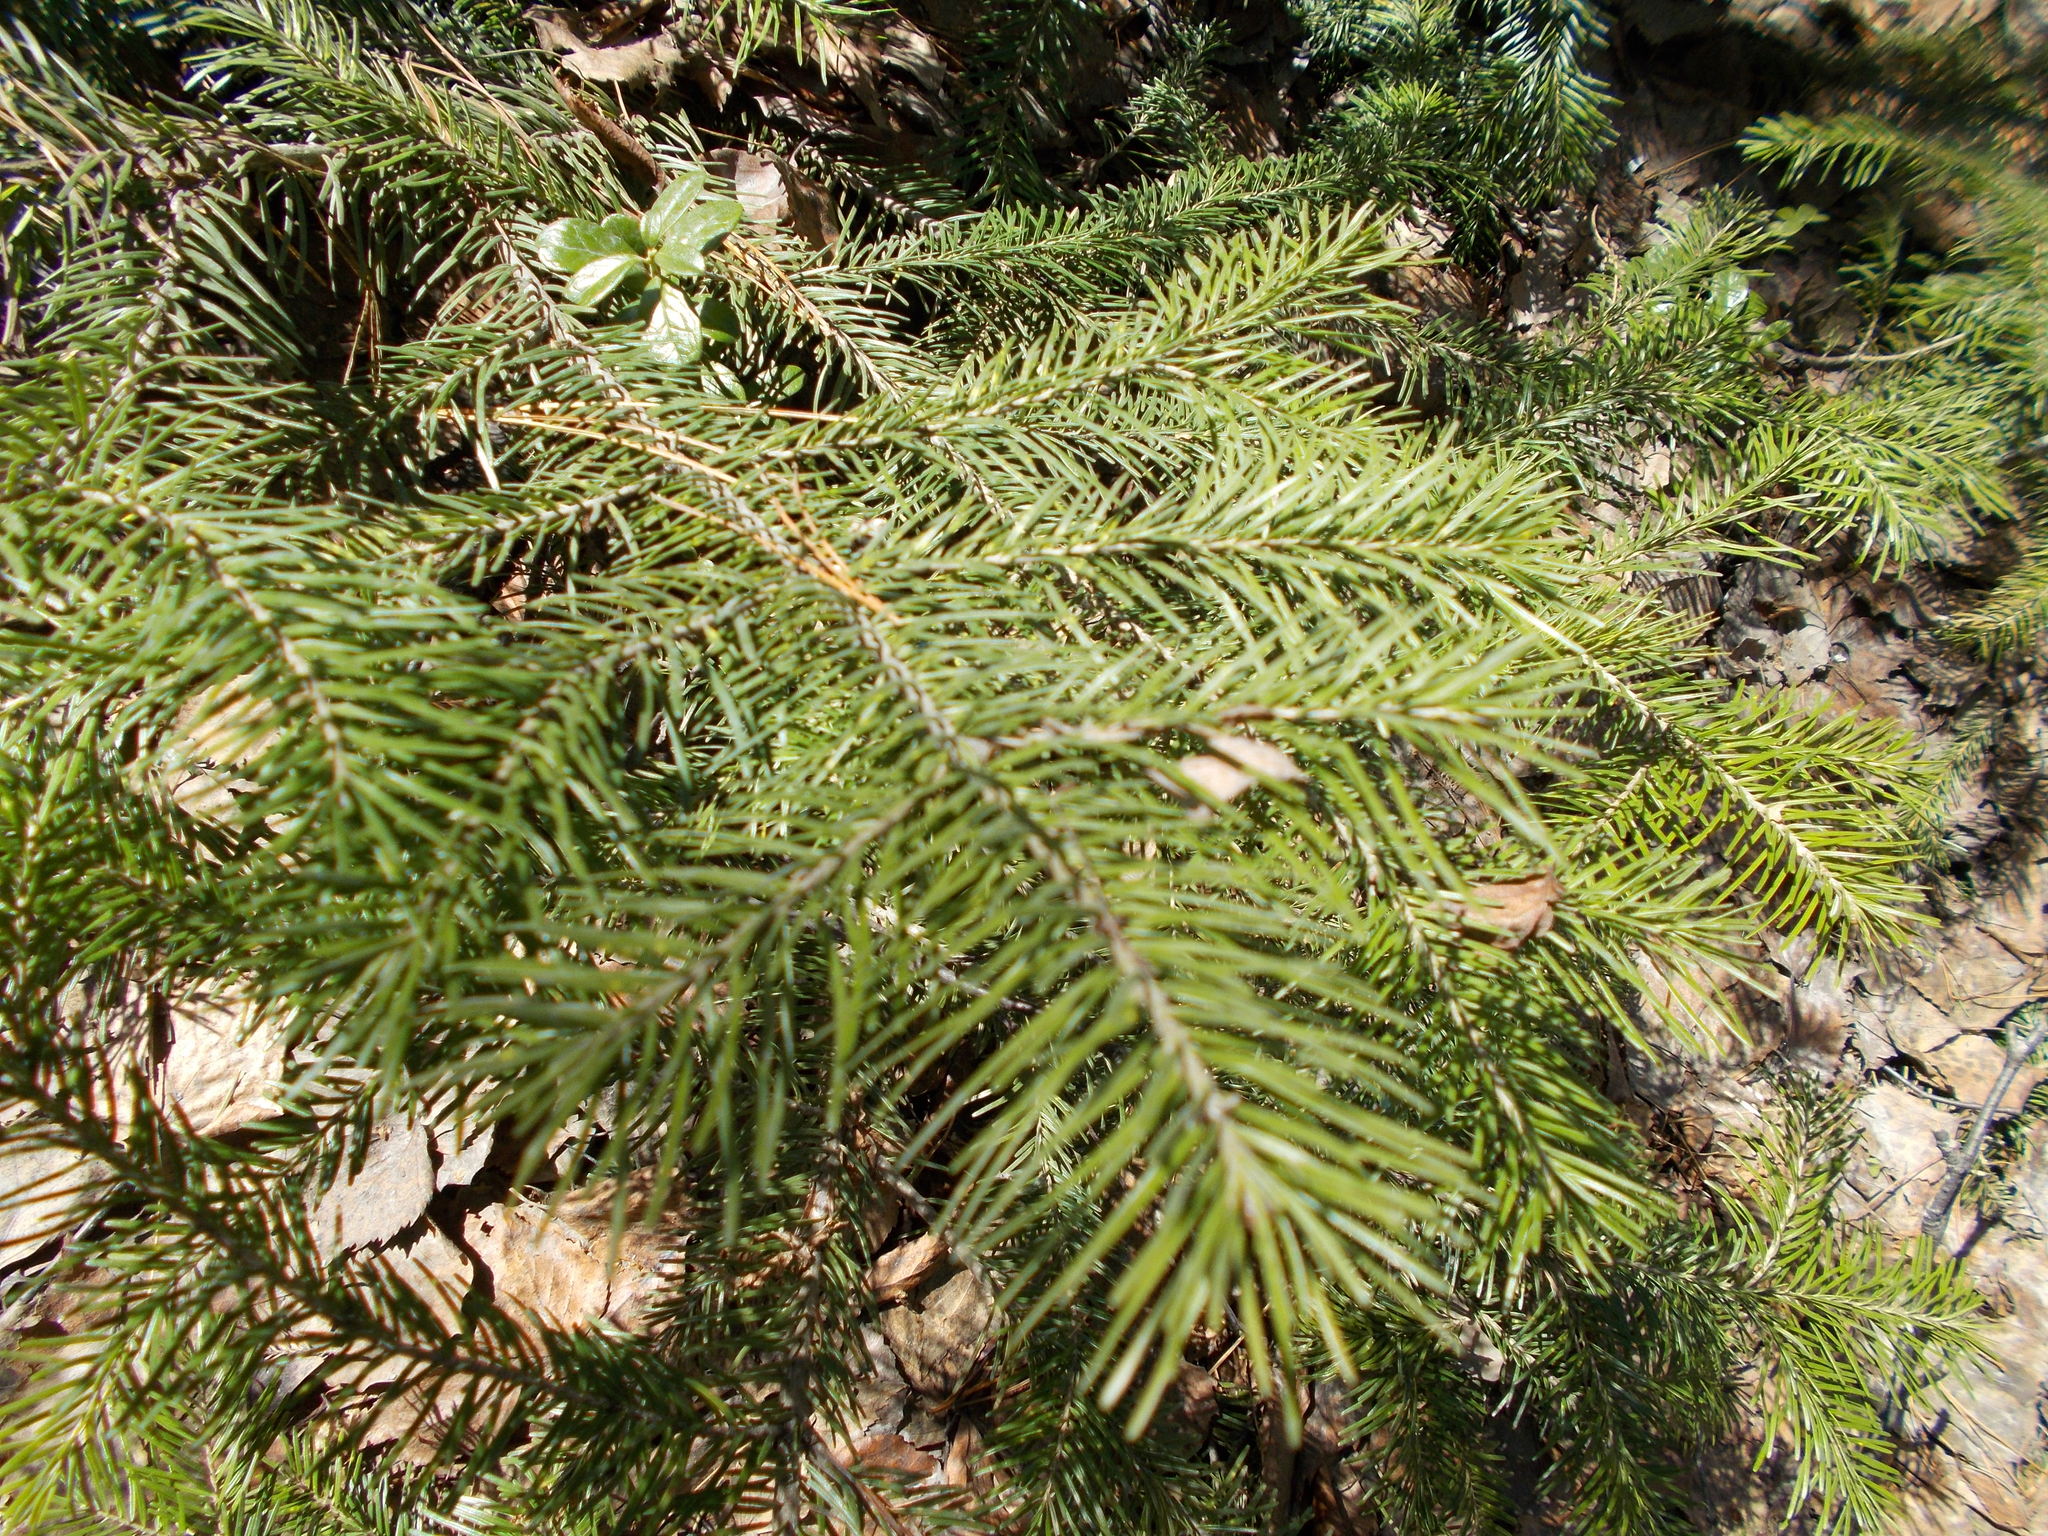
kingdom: Plantae
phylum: Tracheophyta
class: Pinopsida
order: Pinales
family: Pinaceae
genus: Abies
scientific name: Abies sibirica
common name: Siberian fir
